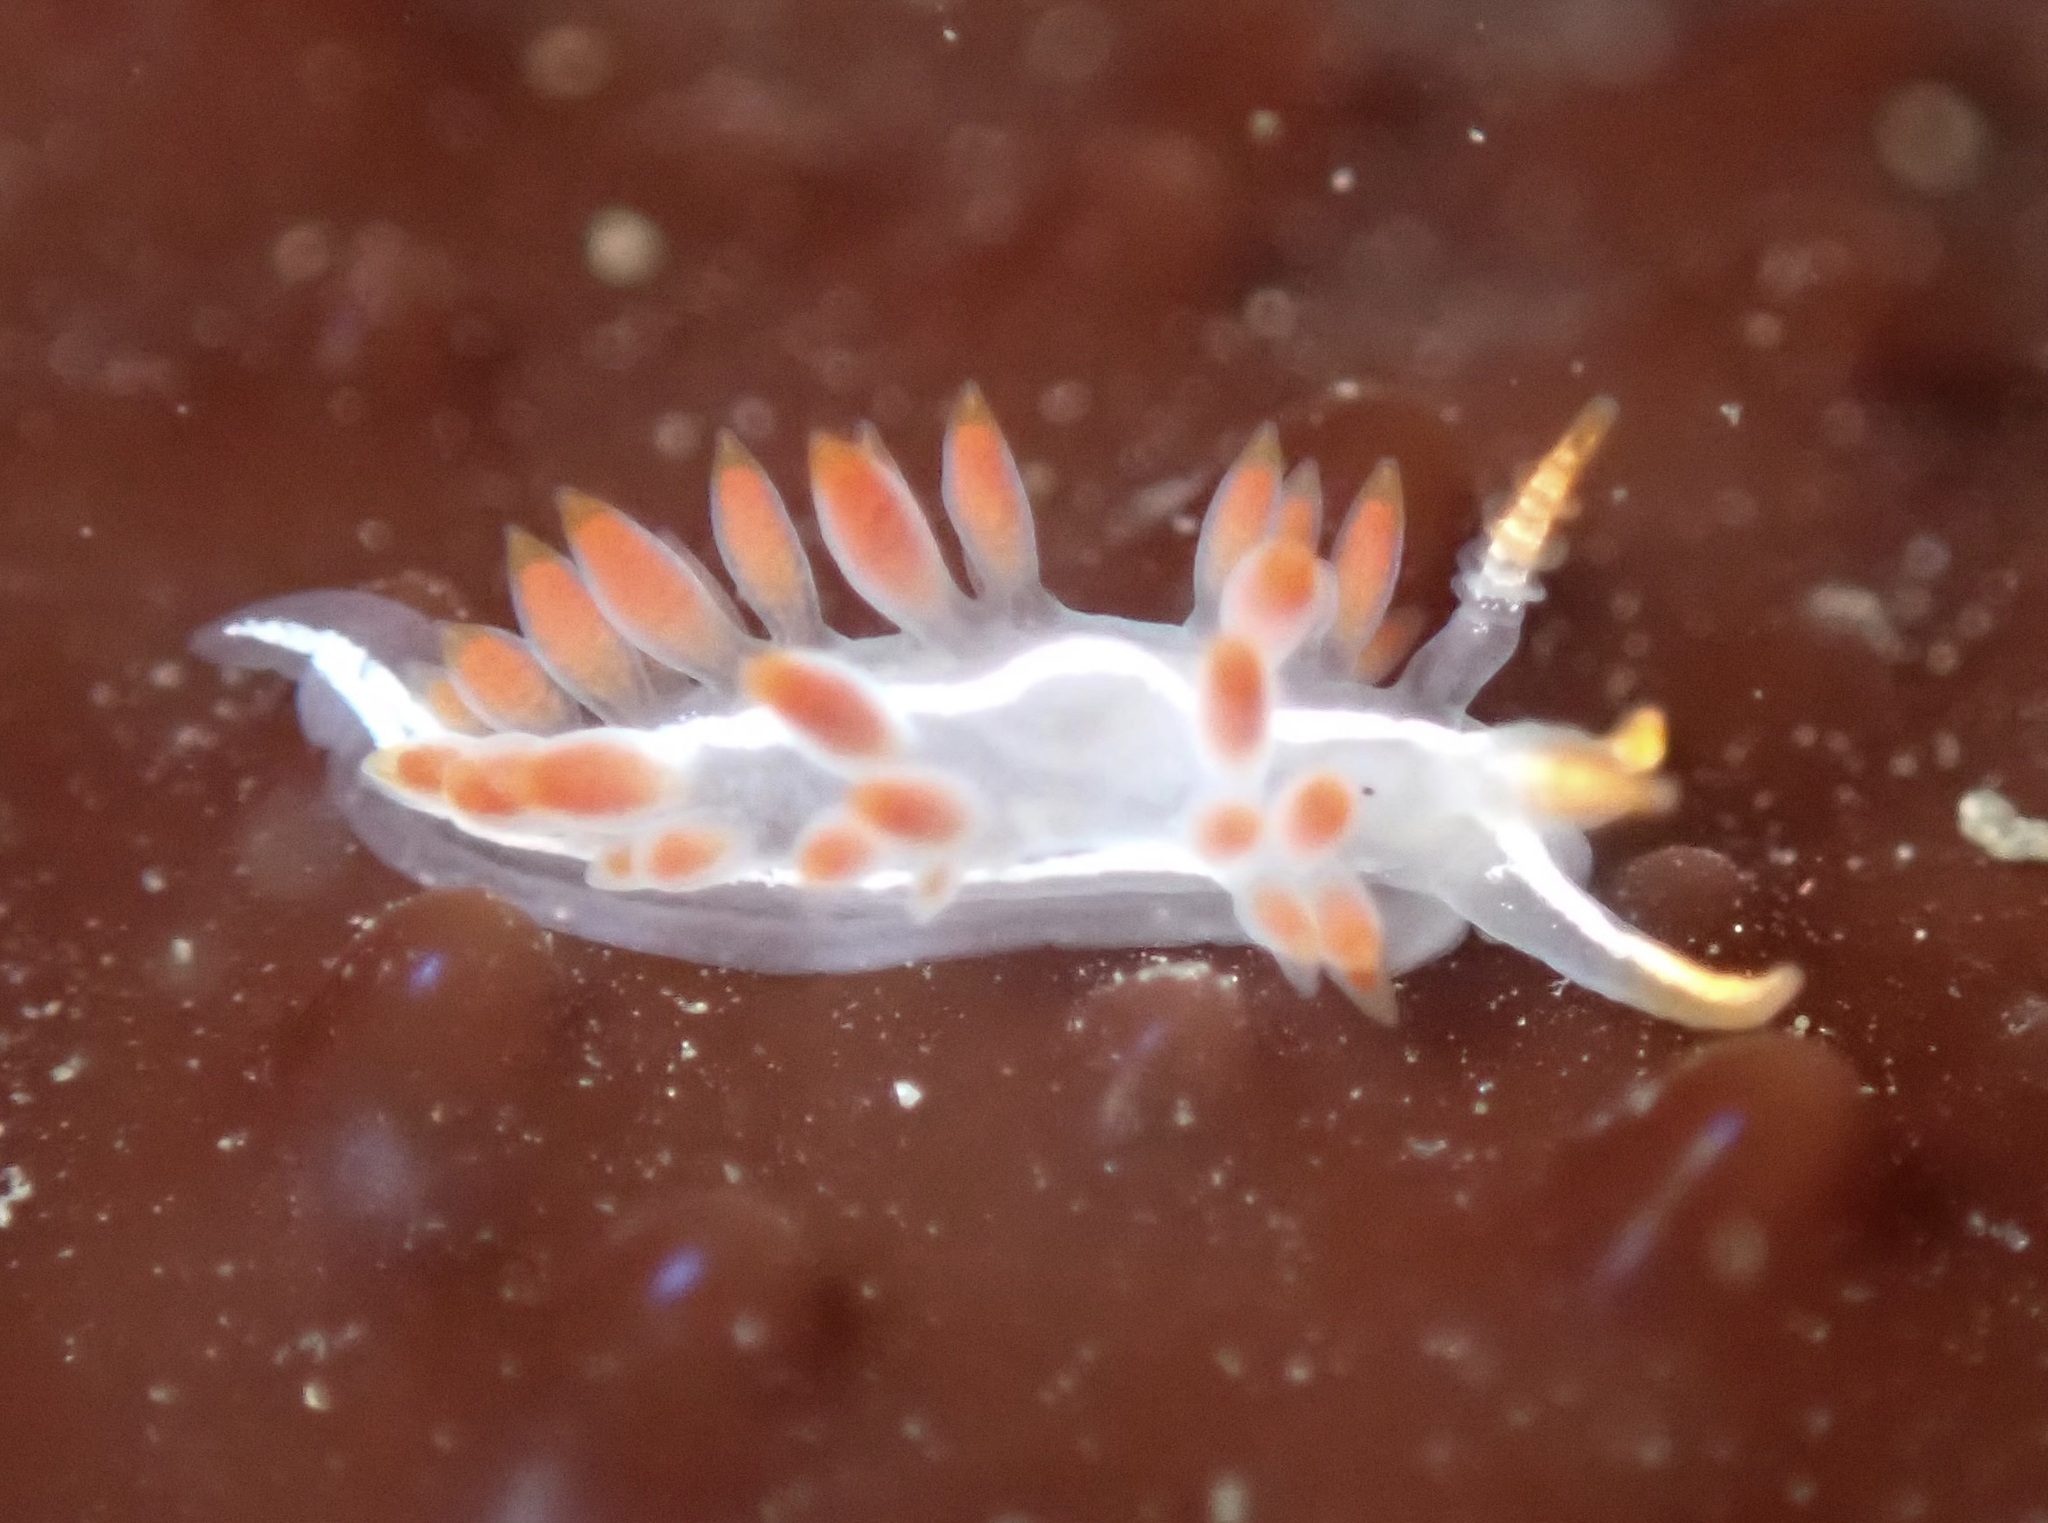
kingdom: Animalia
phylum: Mollusca
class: Gastropoda
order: Nudibranchia
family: Coryphellidae
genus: Coryphella
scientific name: Coryphella trilineata
